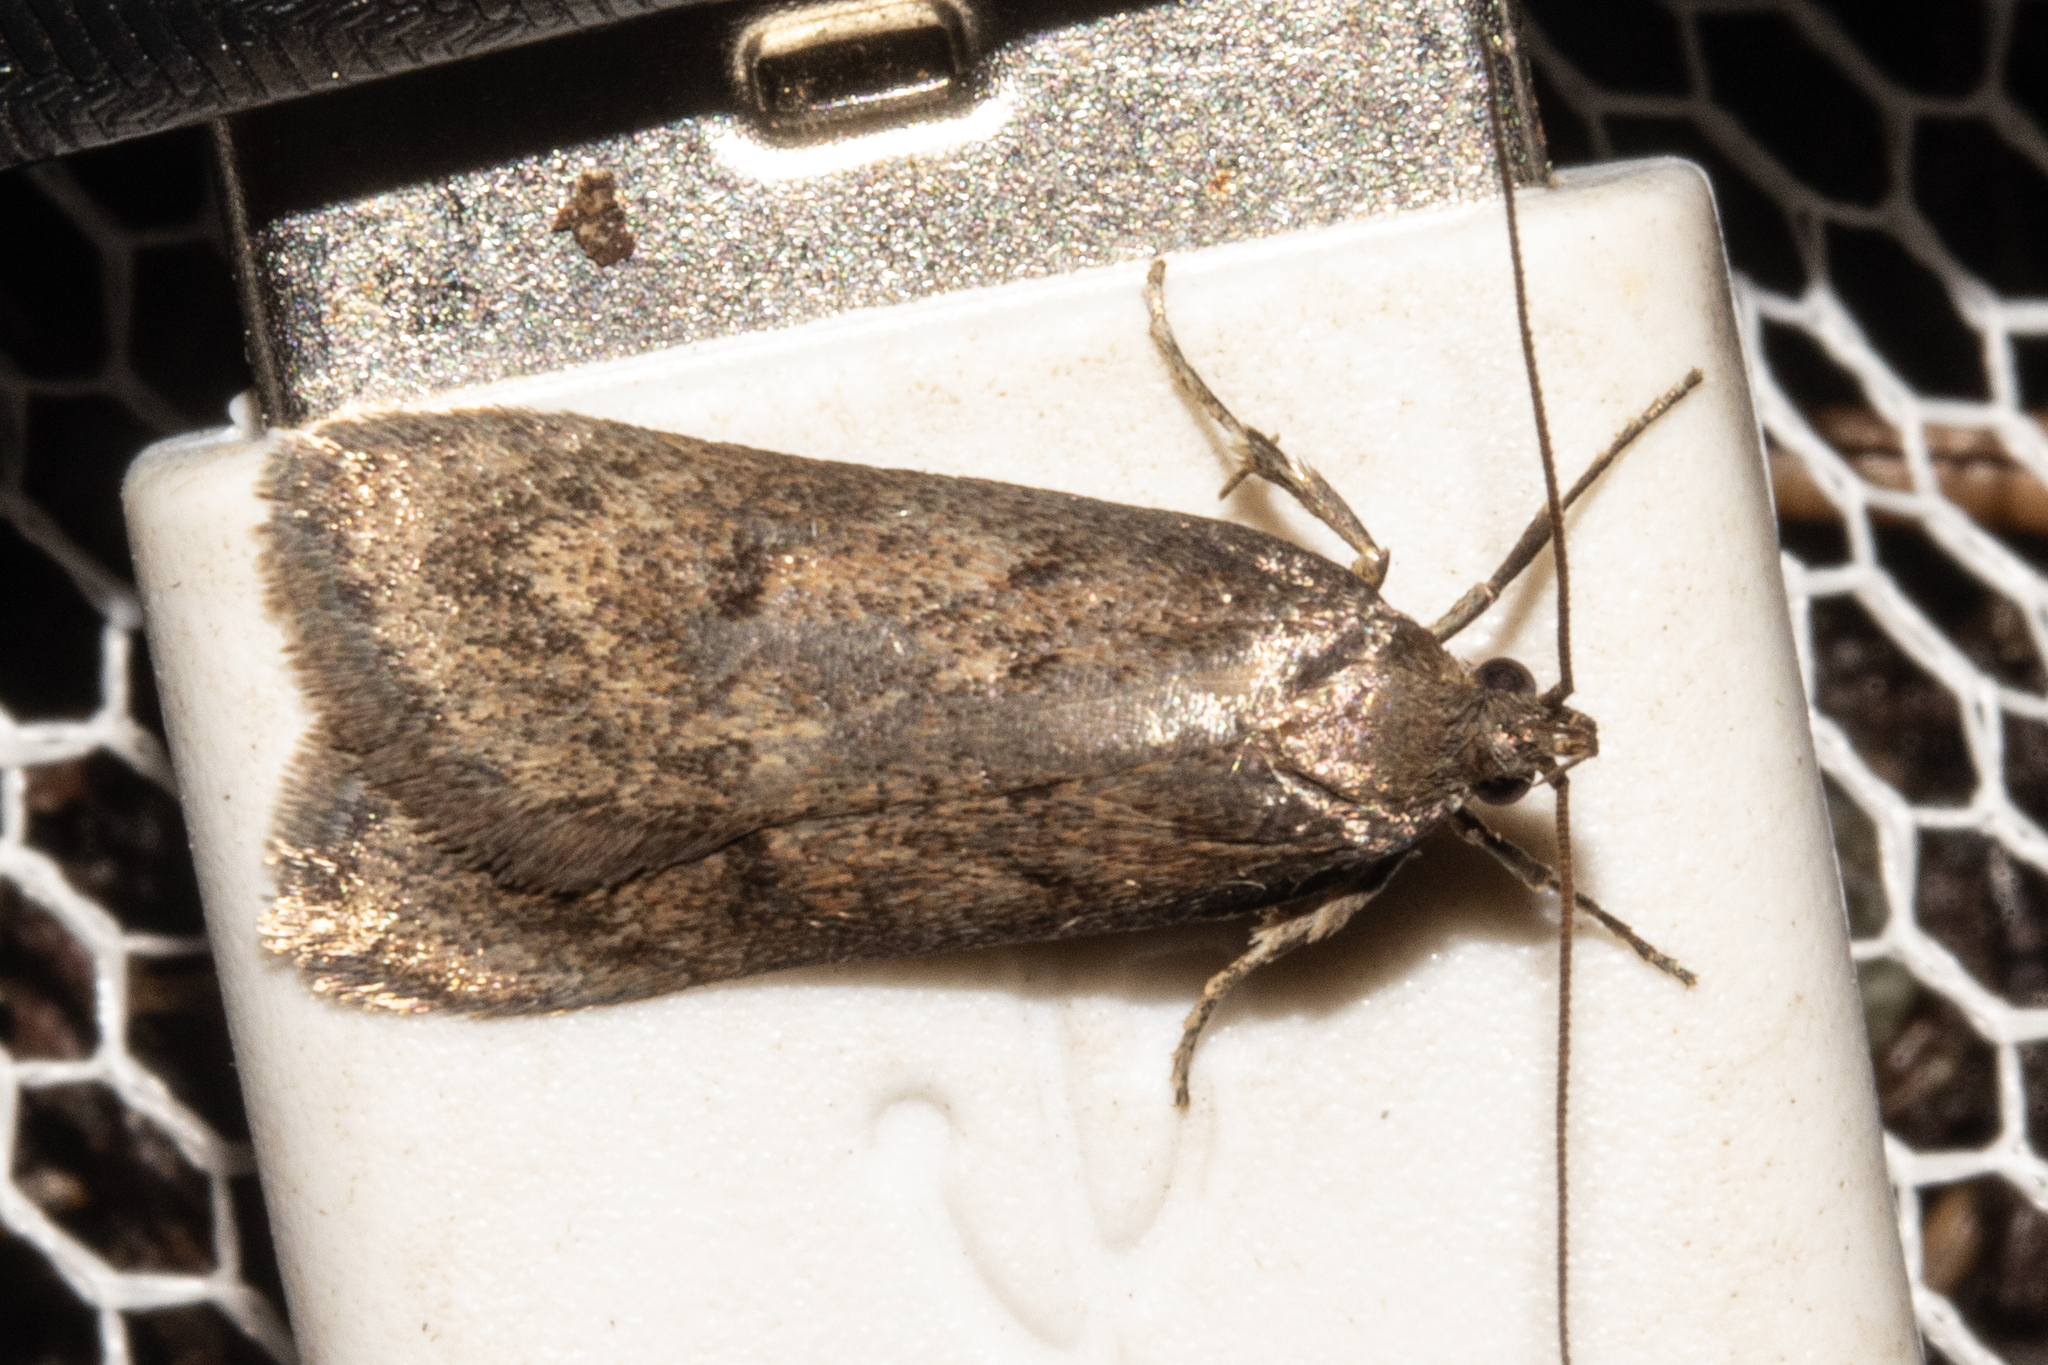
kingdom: Animalia
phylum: Arthropoda
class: Insecta
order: Lepidoptera
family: Depressariidae
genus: Phaeosaces
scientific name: Phaeosaces apocrypta
